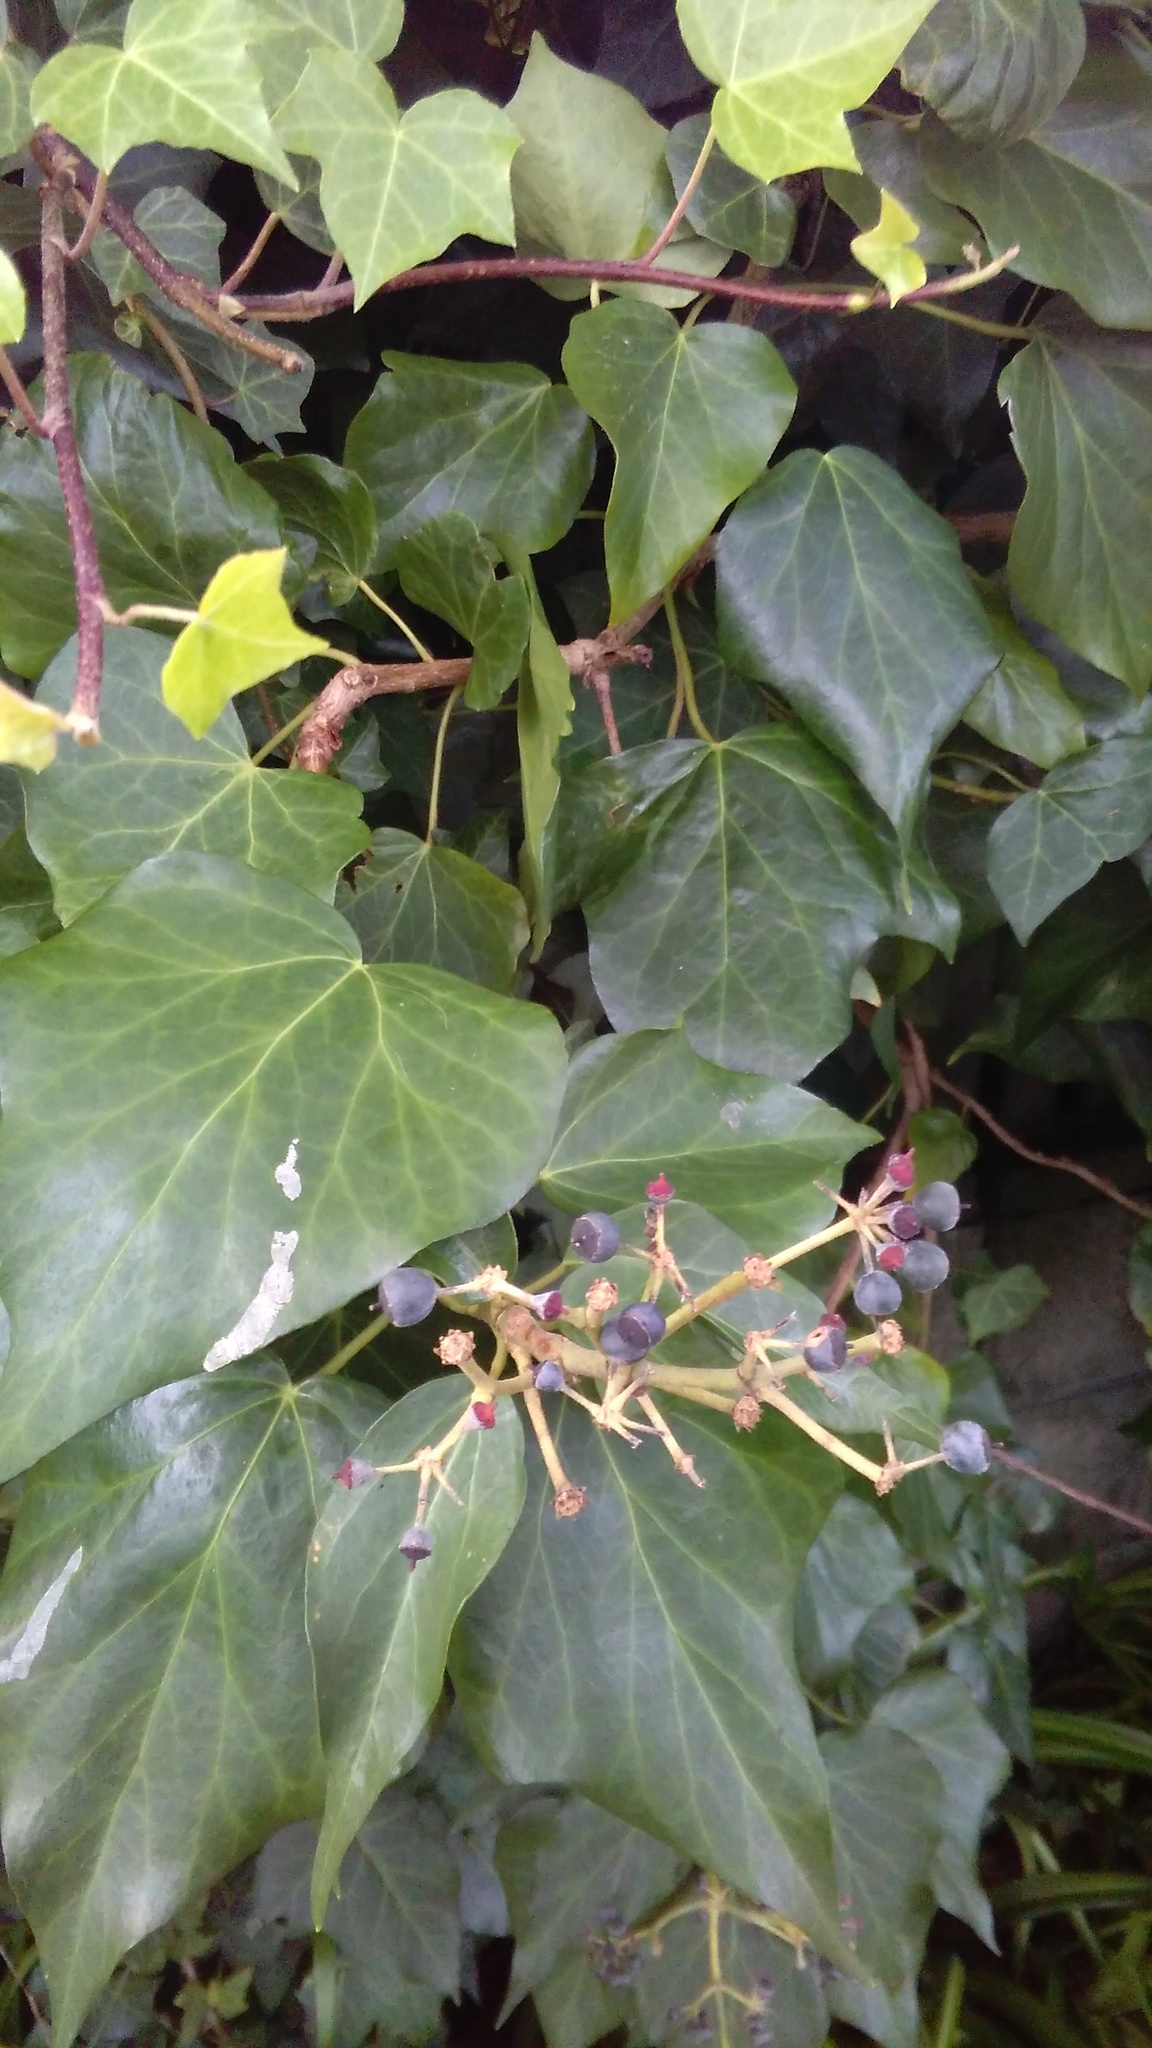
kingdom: Plantae
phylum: Tracheophyta
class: Magnoliopsida
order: Apiales
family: Araliaceae
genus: Hedera
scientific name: Hedera helix
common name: Ivy
